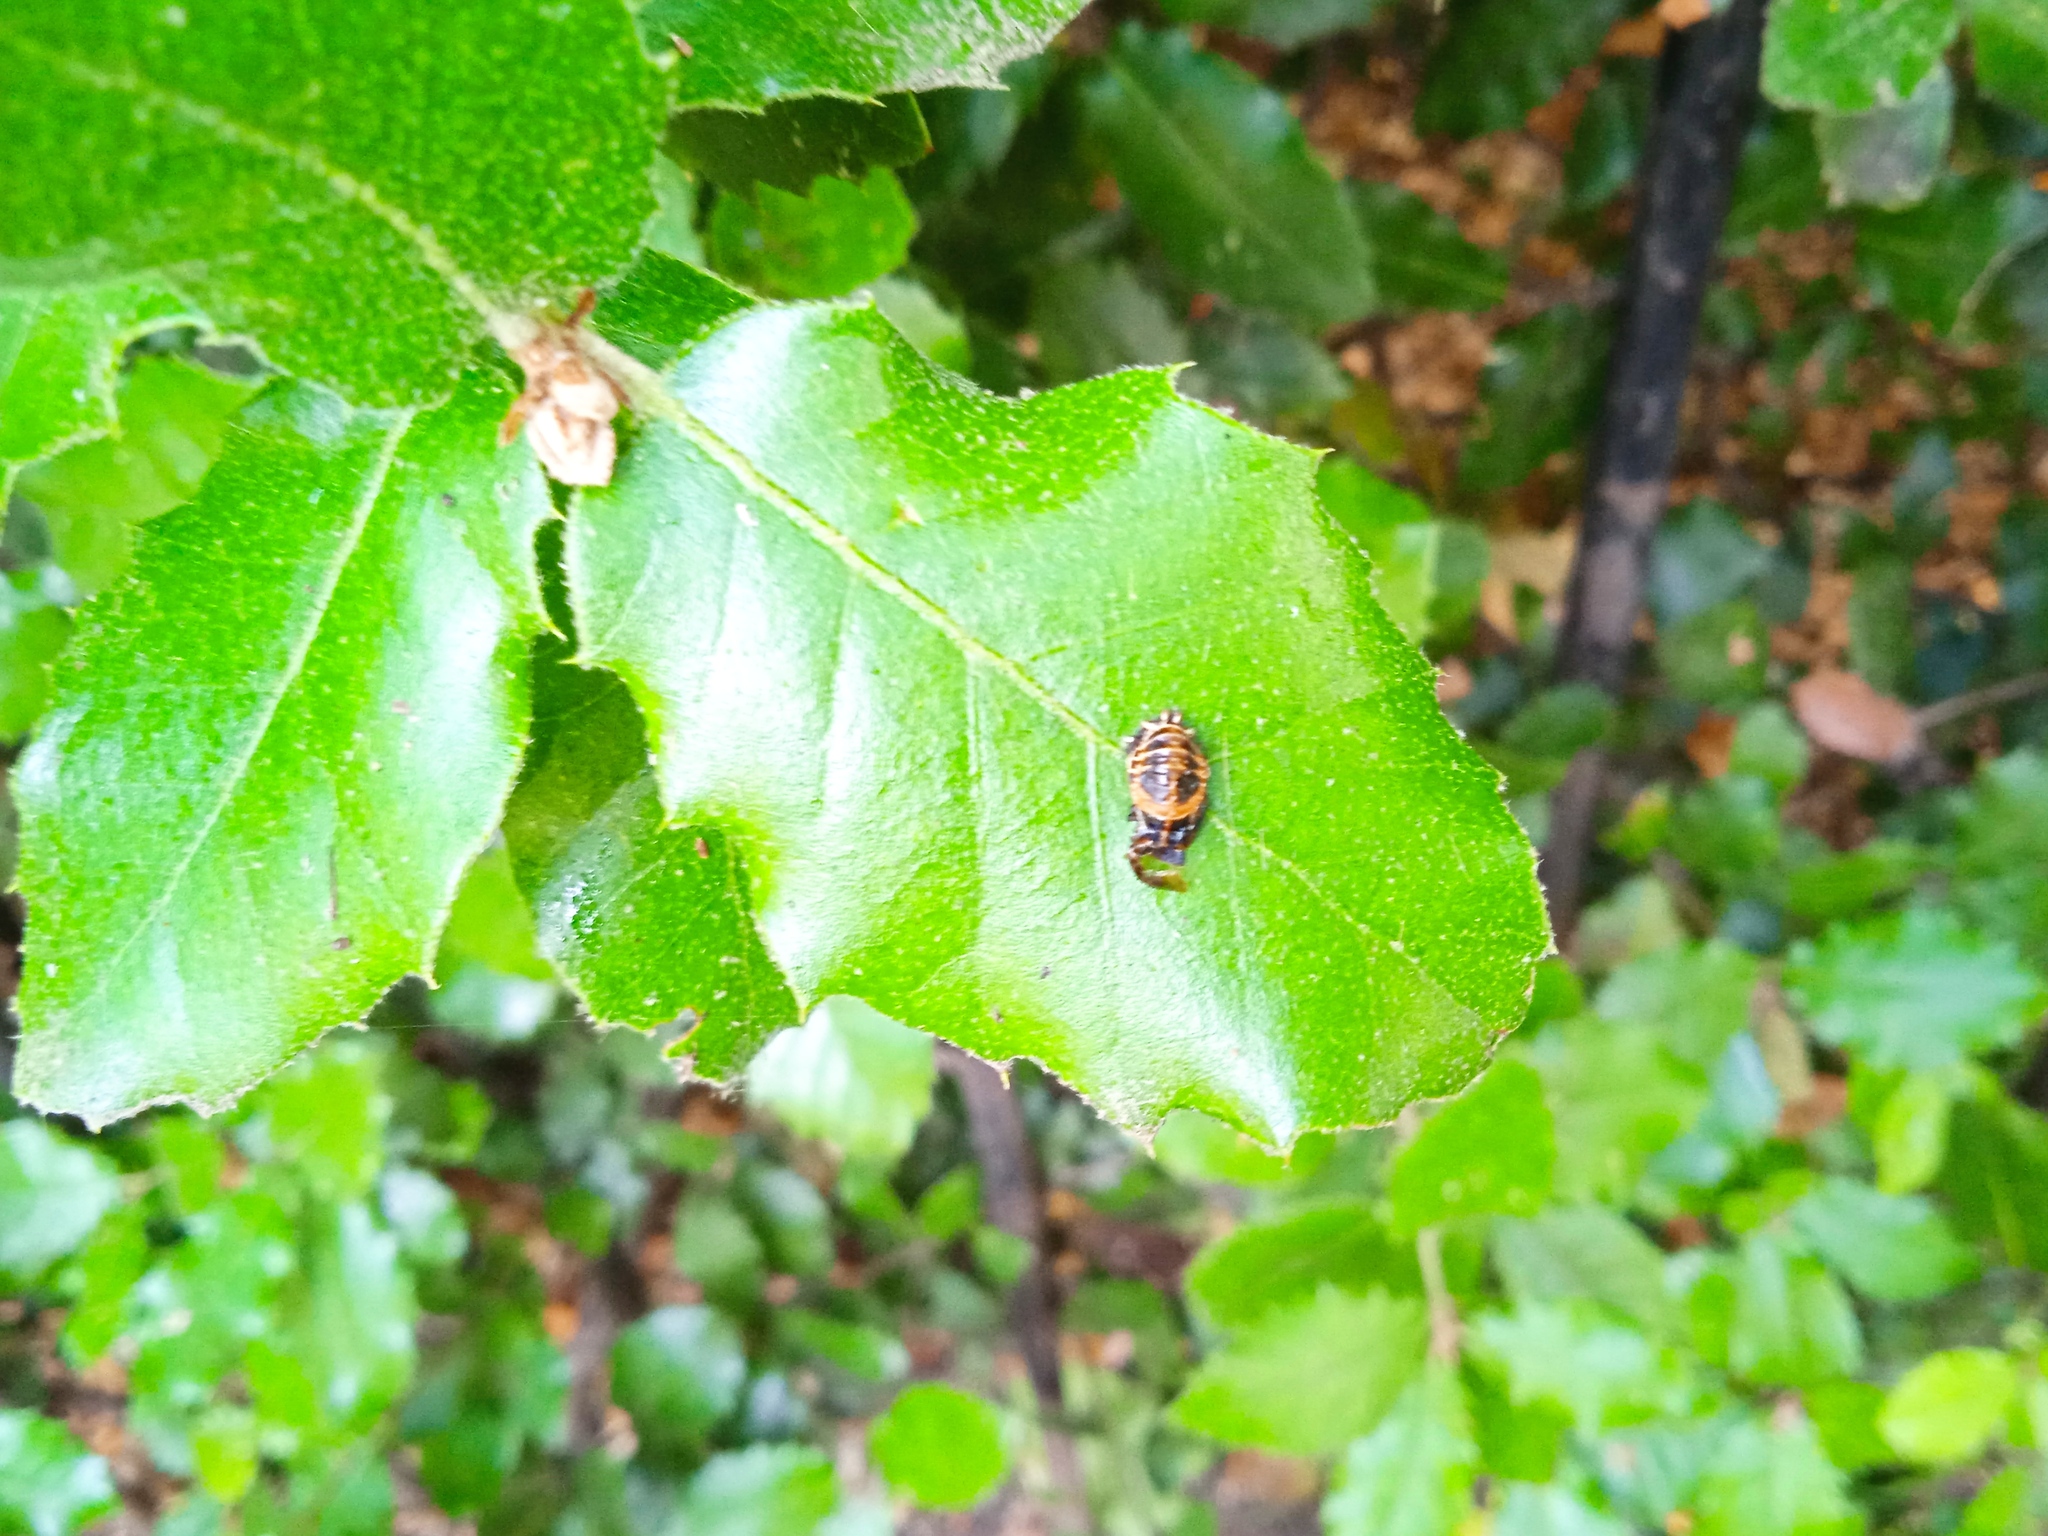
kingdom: Animalia
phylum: Arthropoda
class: Insecta
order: Coleoptera
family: Coccinellidae
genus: Harmonia
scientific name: Harmonia axyridis
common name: Harlequin ladybird
